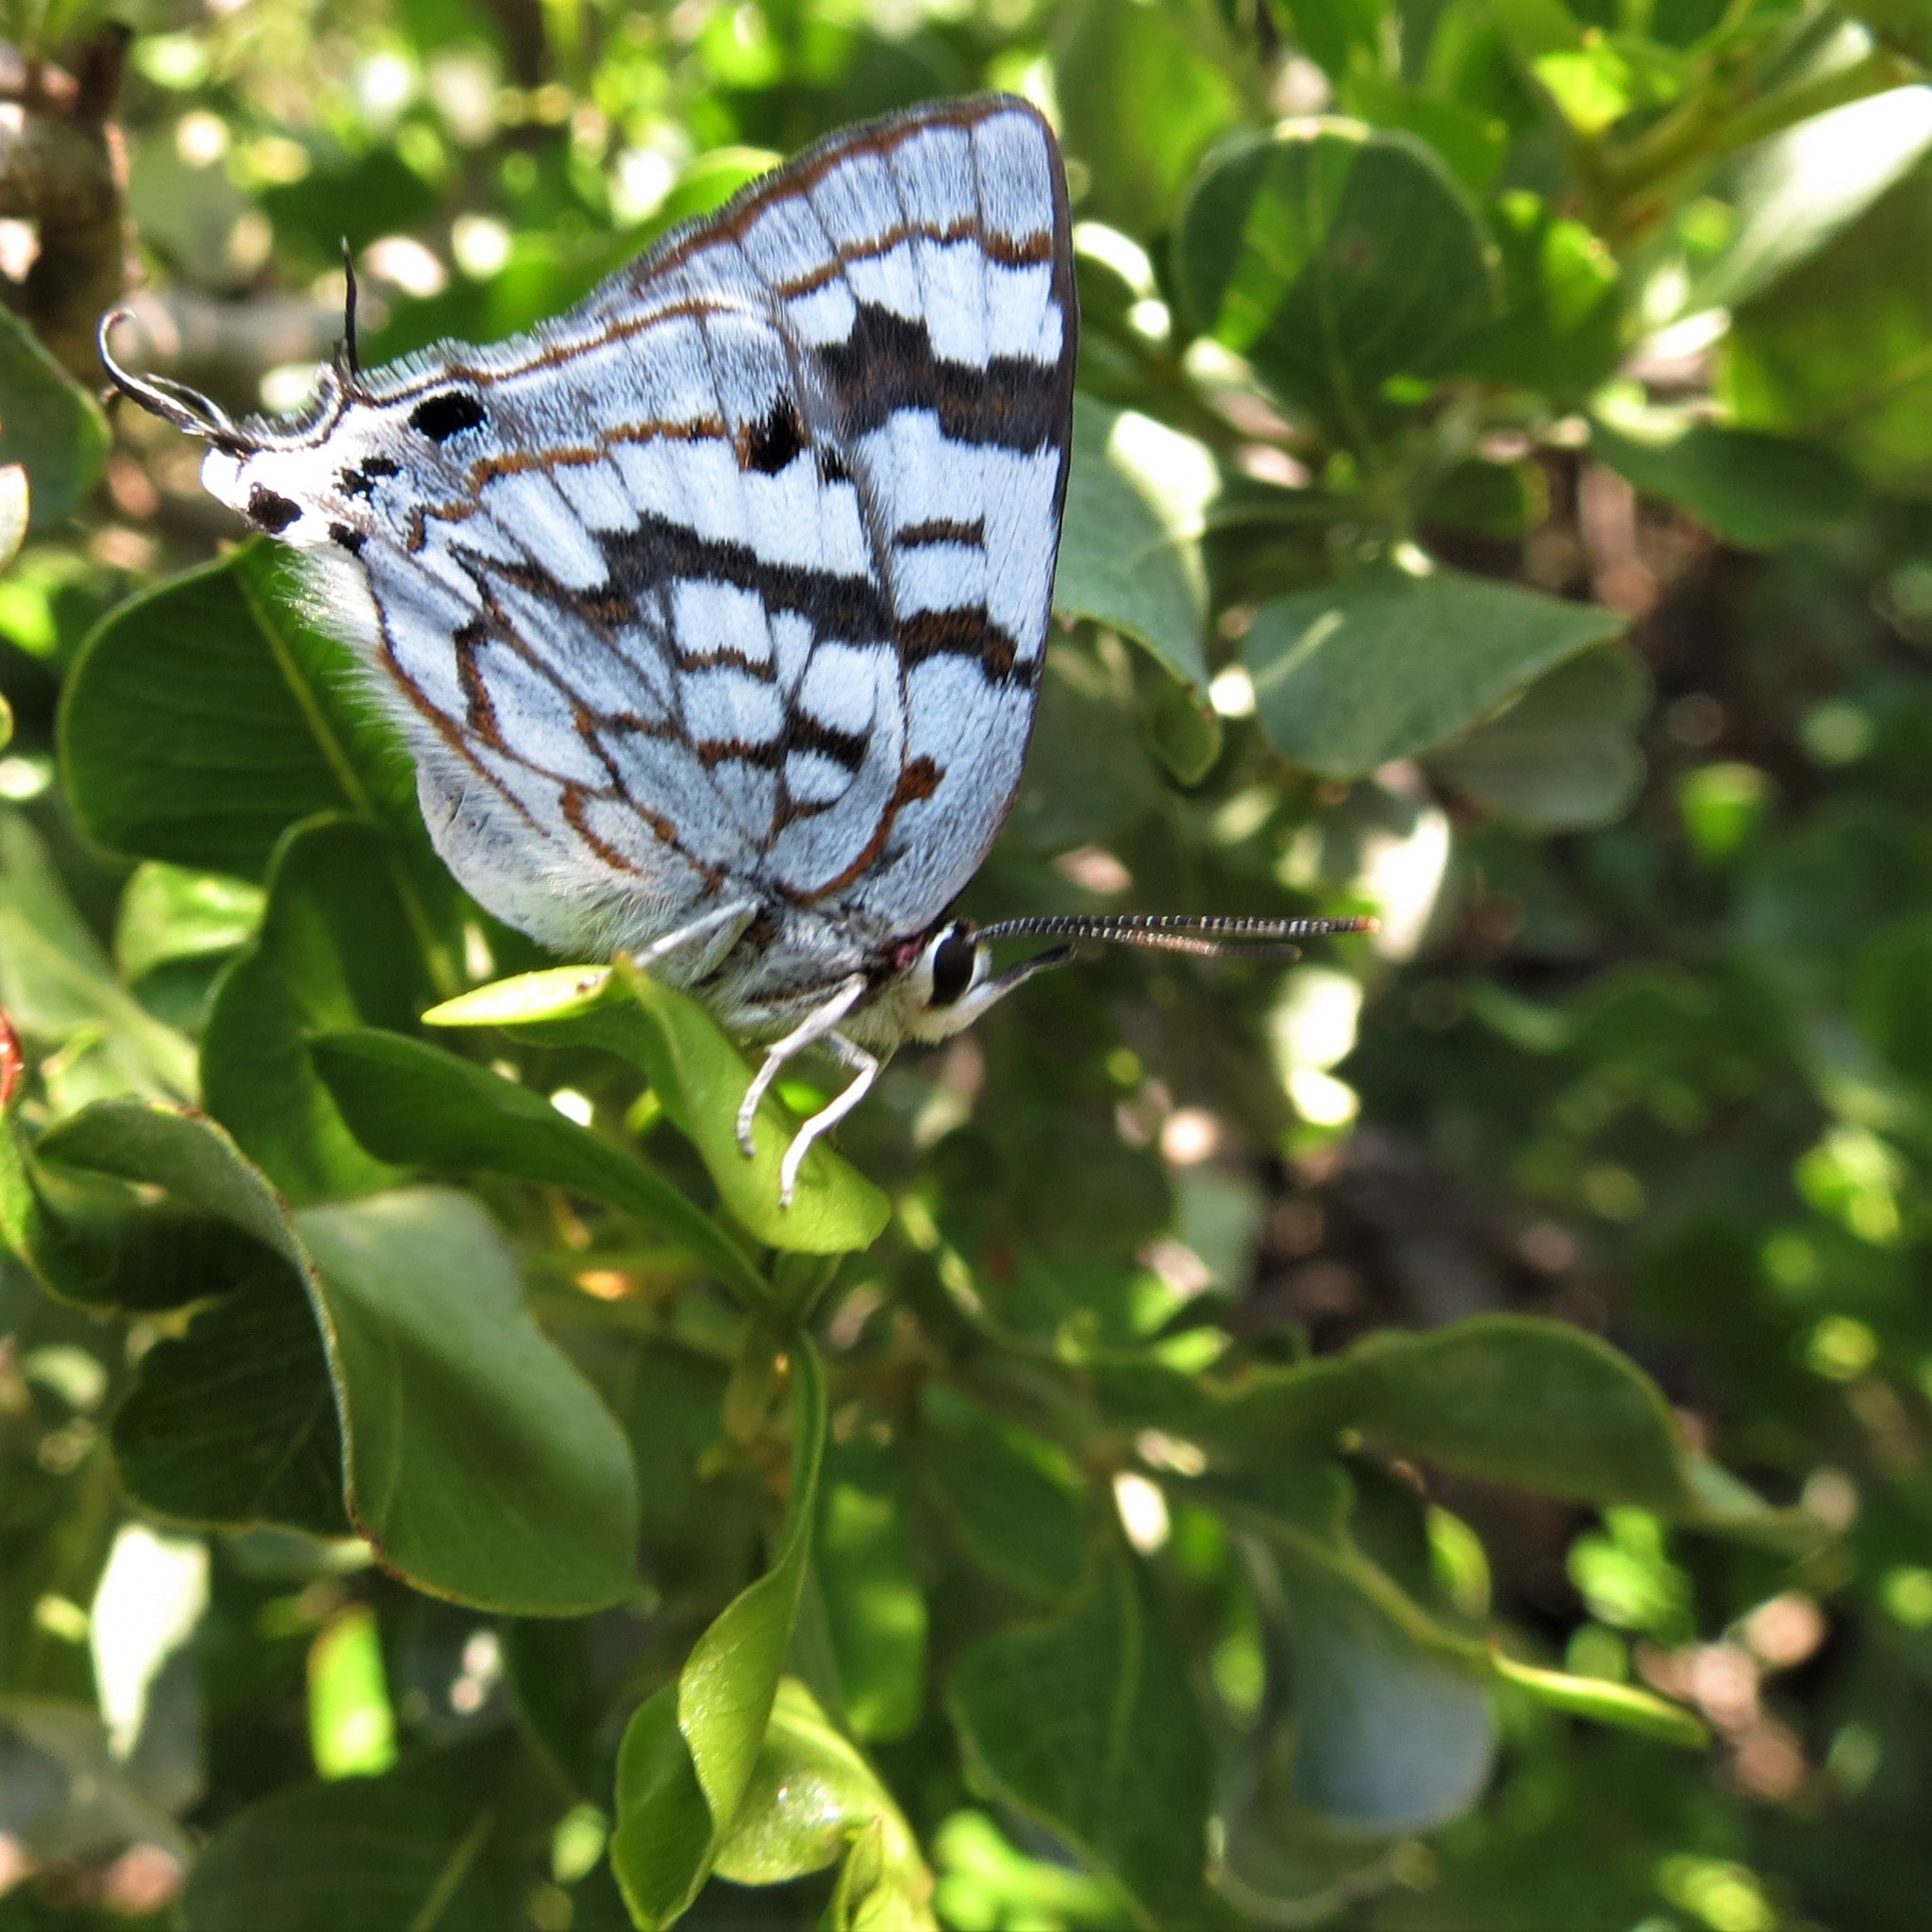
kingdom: Animalia
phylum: Arthropoda
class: Insecta
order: Lepidoptera
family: Lycaenidae
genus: Stugeta
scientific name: Stugeta bowkeri
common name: Bowker's marbled sapphire
